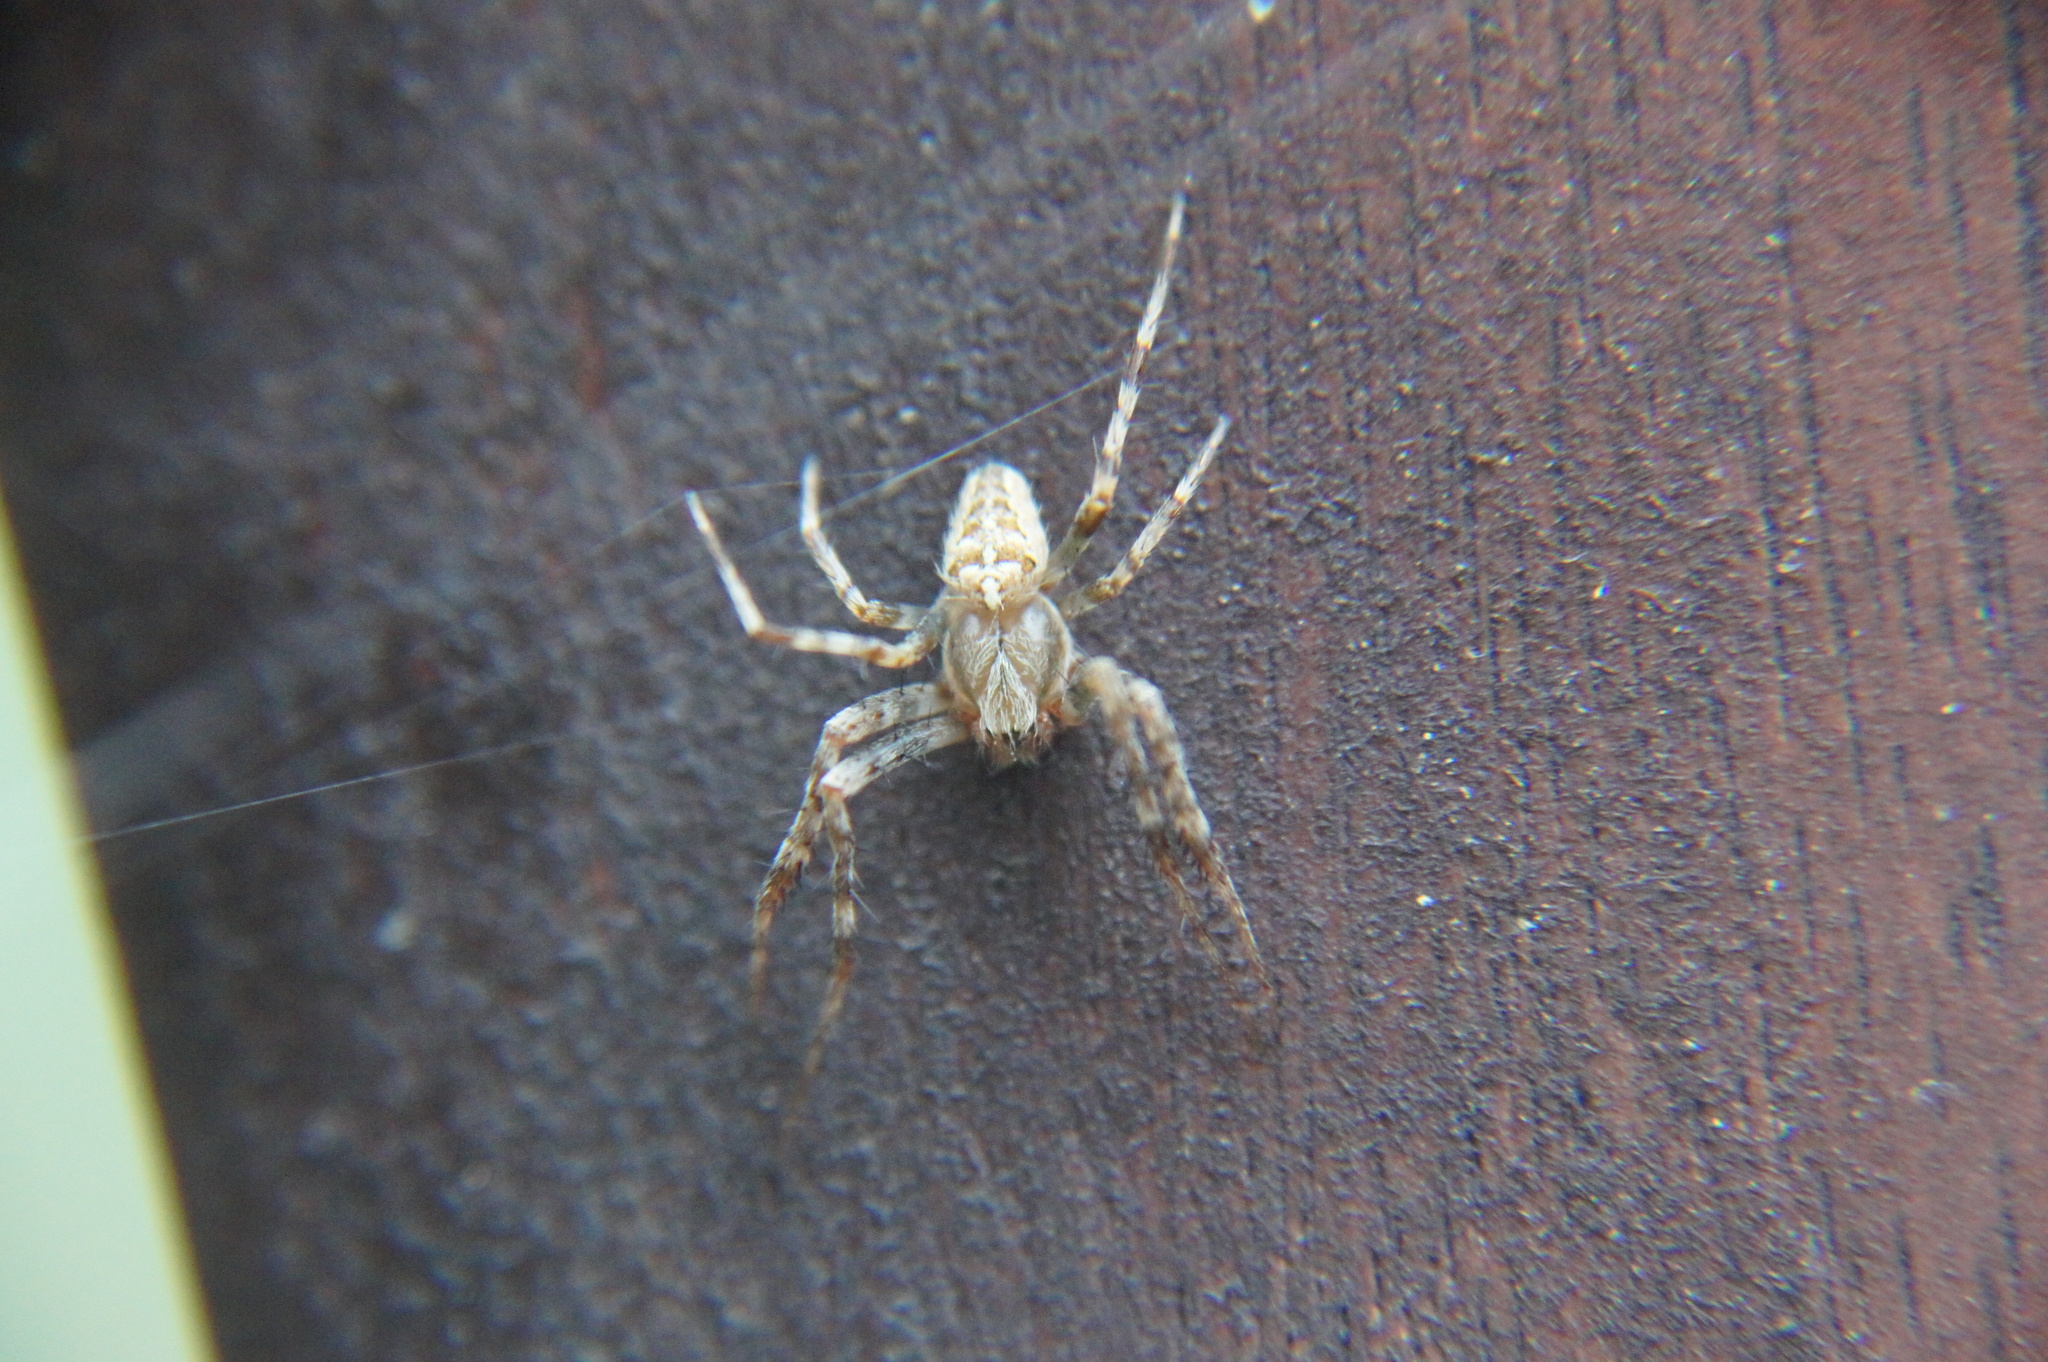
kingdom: Animalia
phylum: Arthropoda
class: Arachnida
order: Araneae
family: Araneidae
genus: Araneus
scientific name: Araneus diadematus
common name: Cross orbweaver
